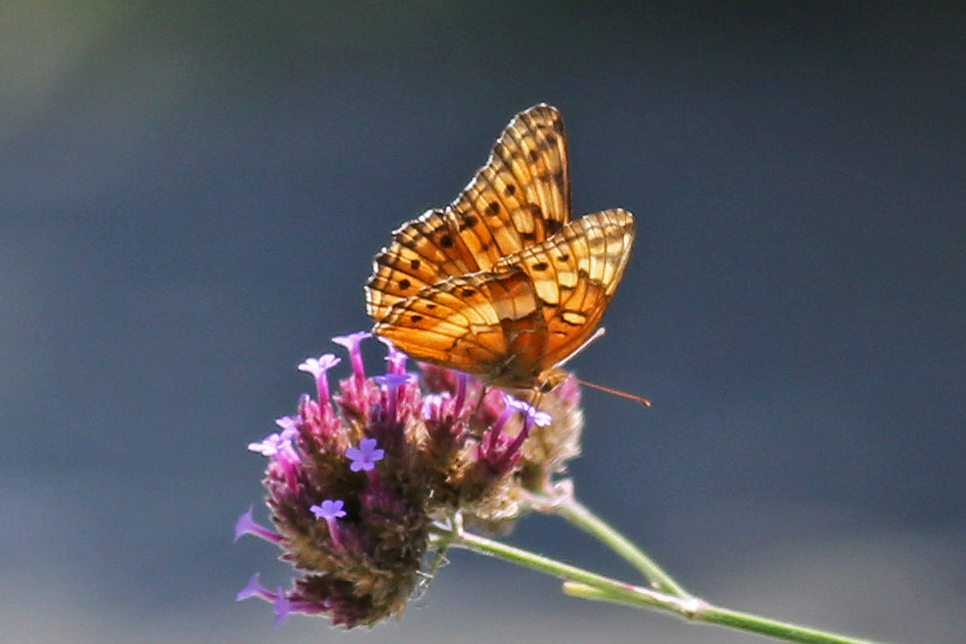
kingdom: Animalia
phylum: Arthropoda
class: Insecta
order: Lepidoptera
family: Nymphalidae
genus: Euptoieta
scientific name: Euptoieta claudia
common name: Variegated fritillary
